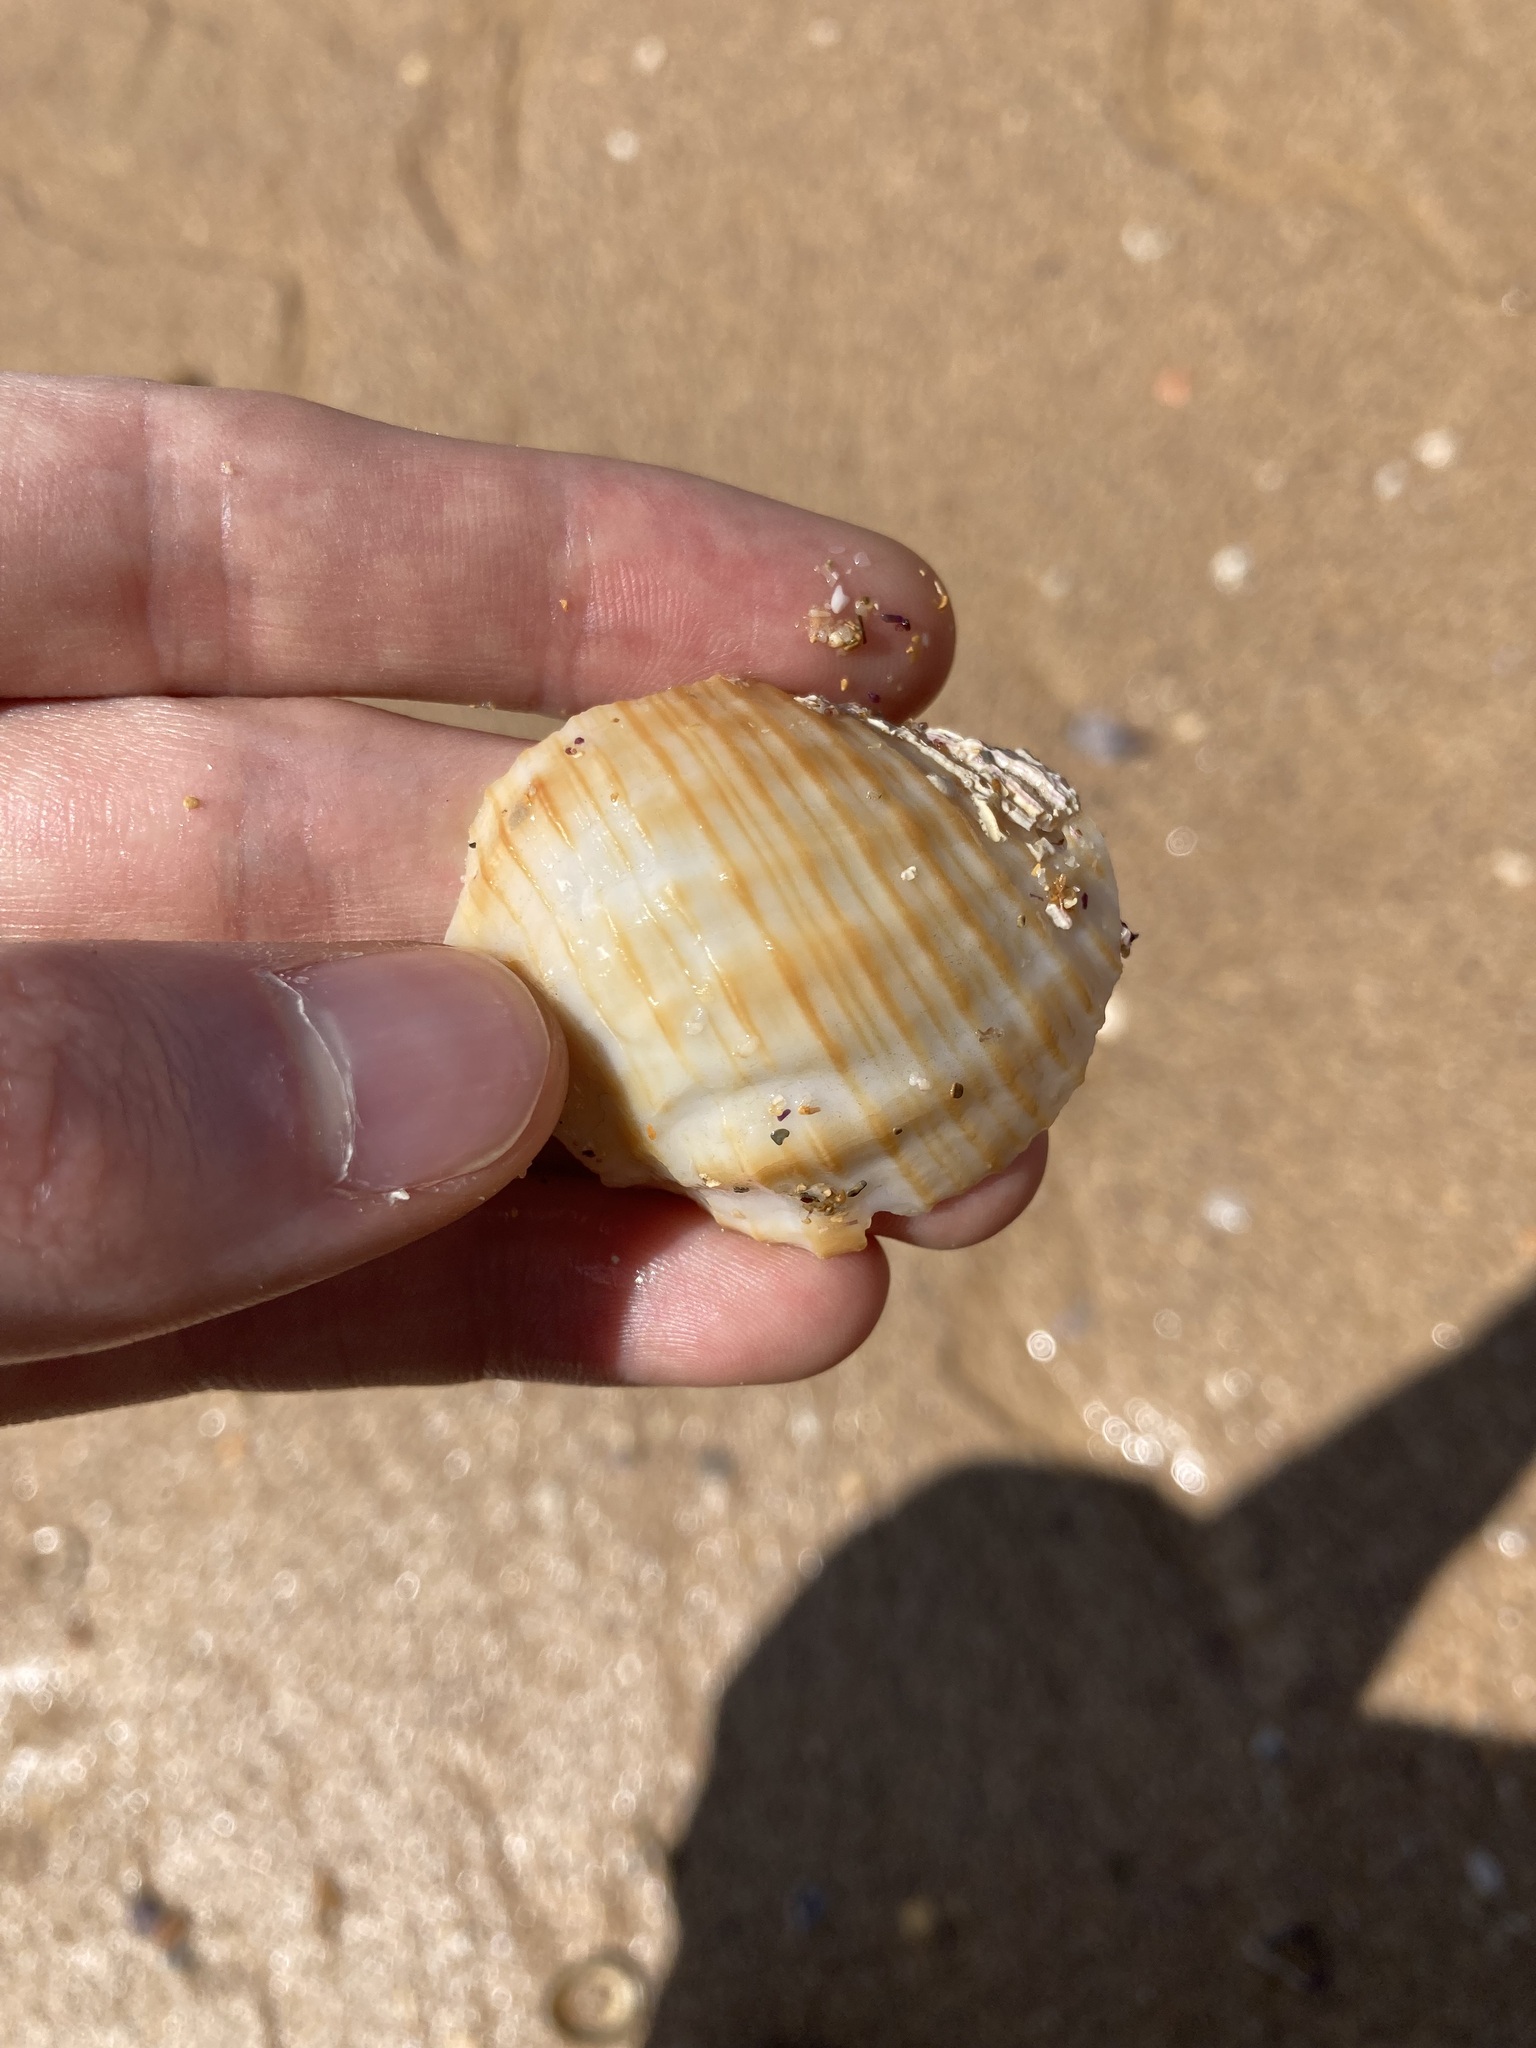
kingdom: Animalia
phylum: Mollusca
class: Gastropoda
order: Neogastropoda
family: Muricidae
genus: Dicathais
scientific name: Dicathais orbita
